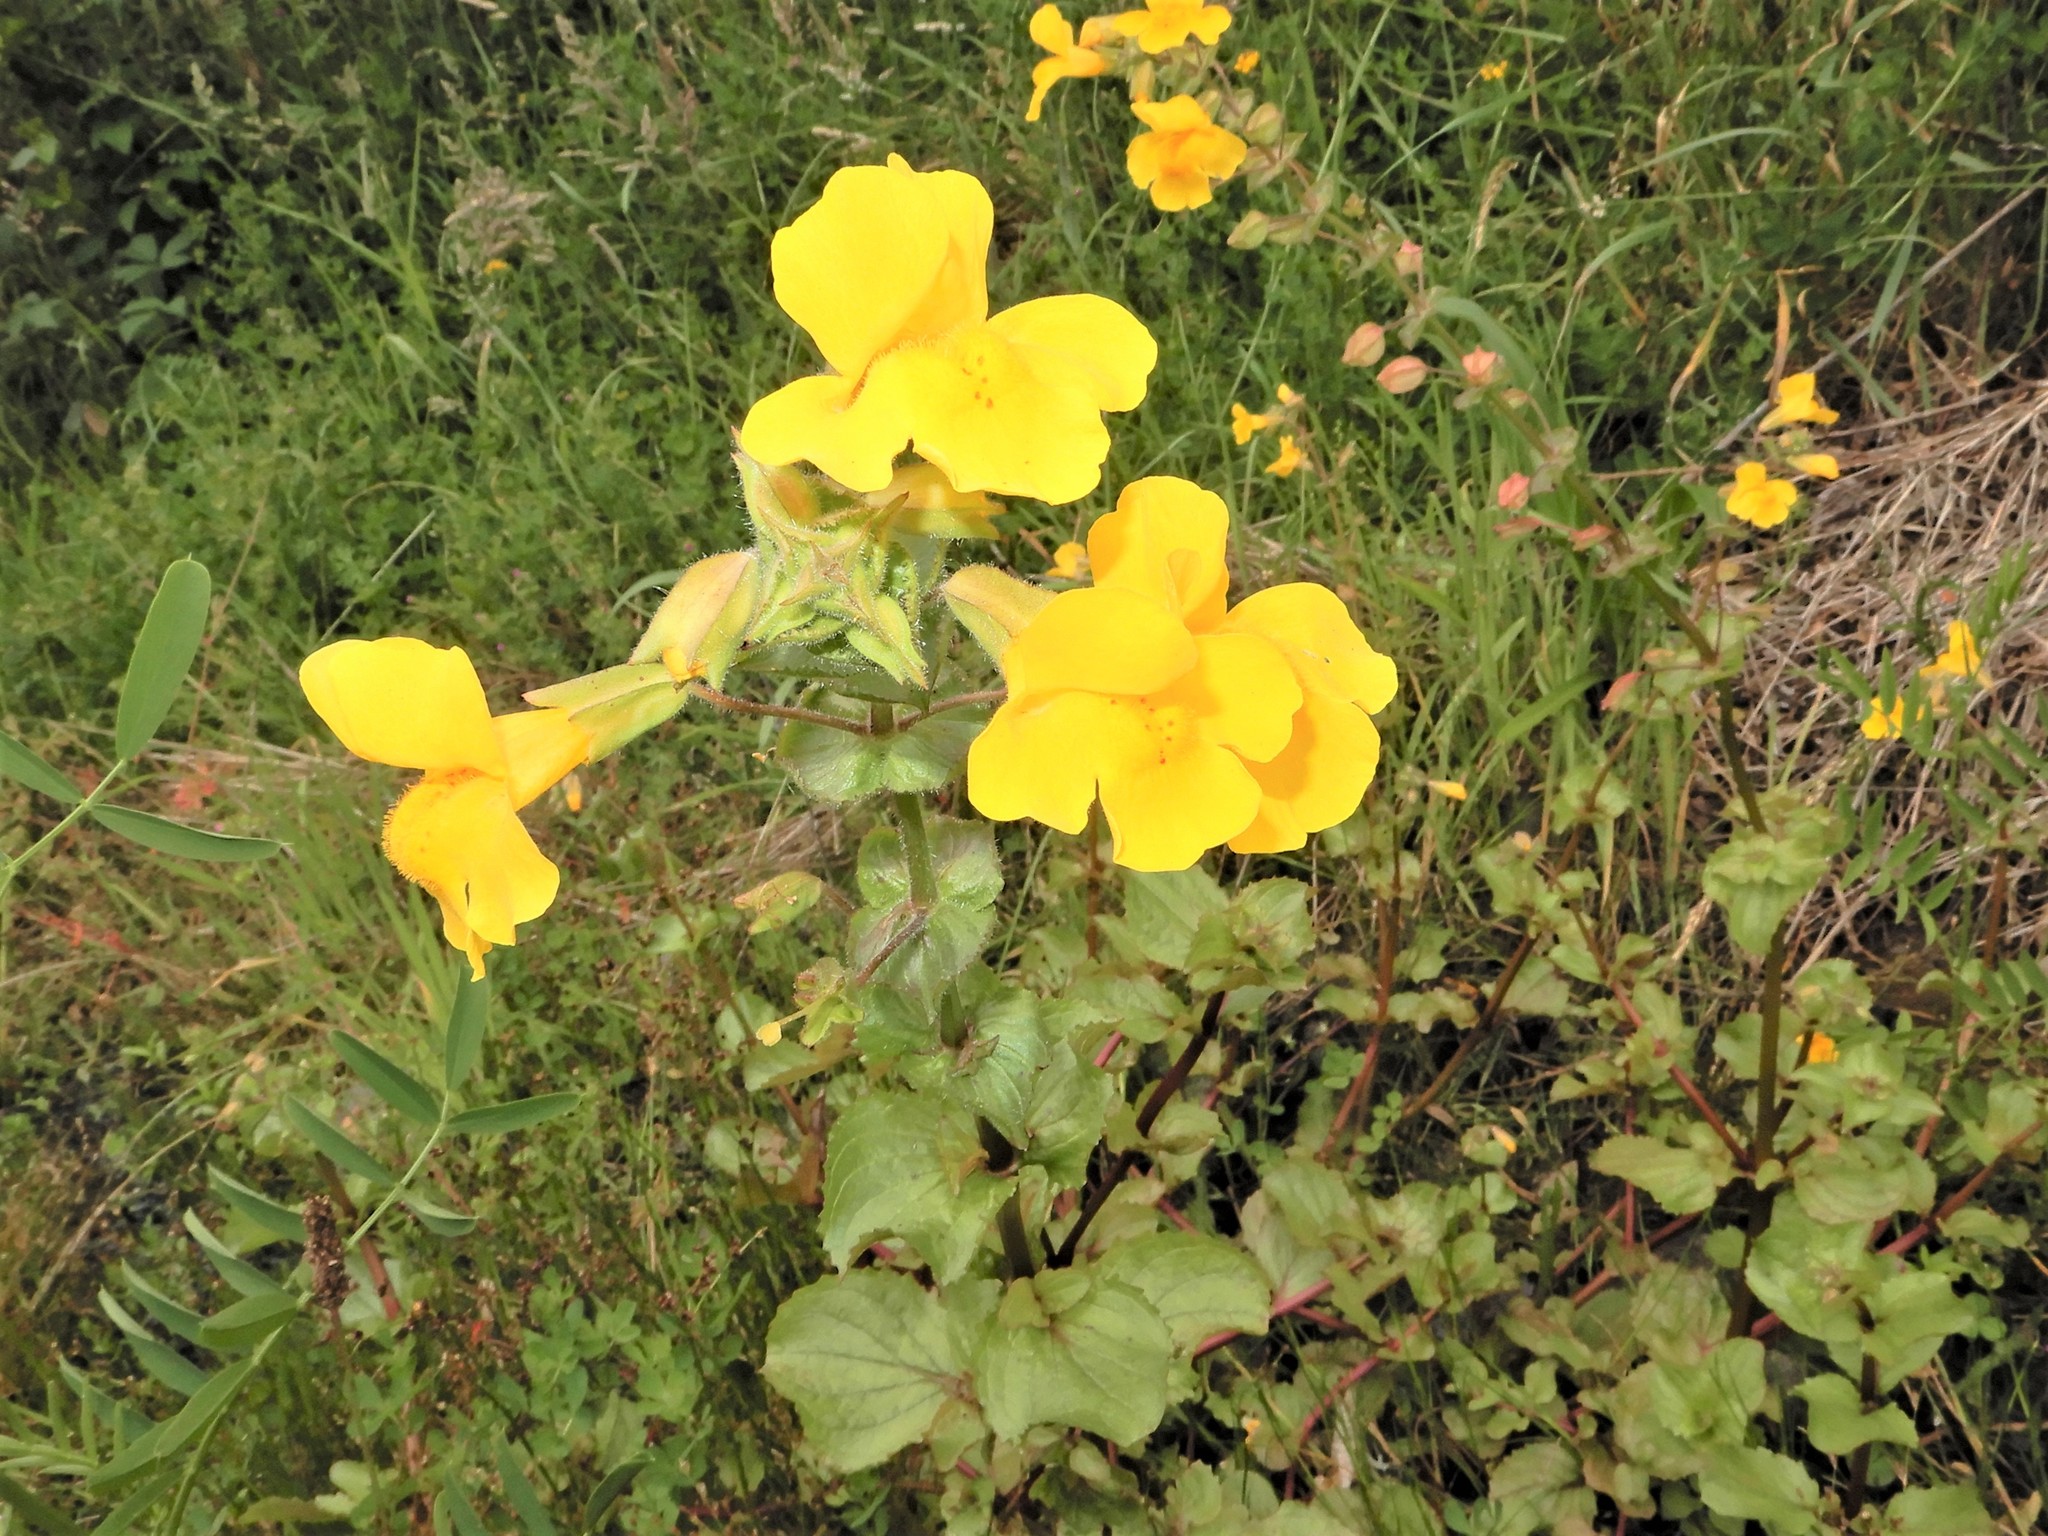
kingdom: Plantae
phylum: Tracheophyta
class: Magnoliopsida
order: Lamiales
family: Phrymaceae
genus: Erythranthe
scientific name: Erythranthe guttata
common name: Monkeyflower
